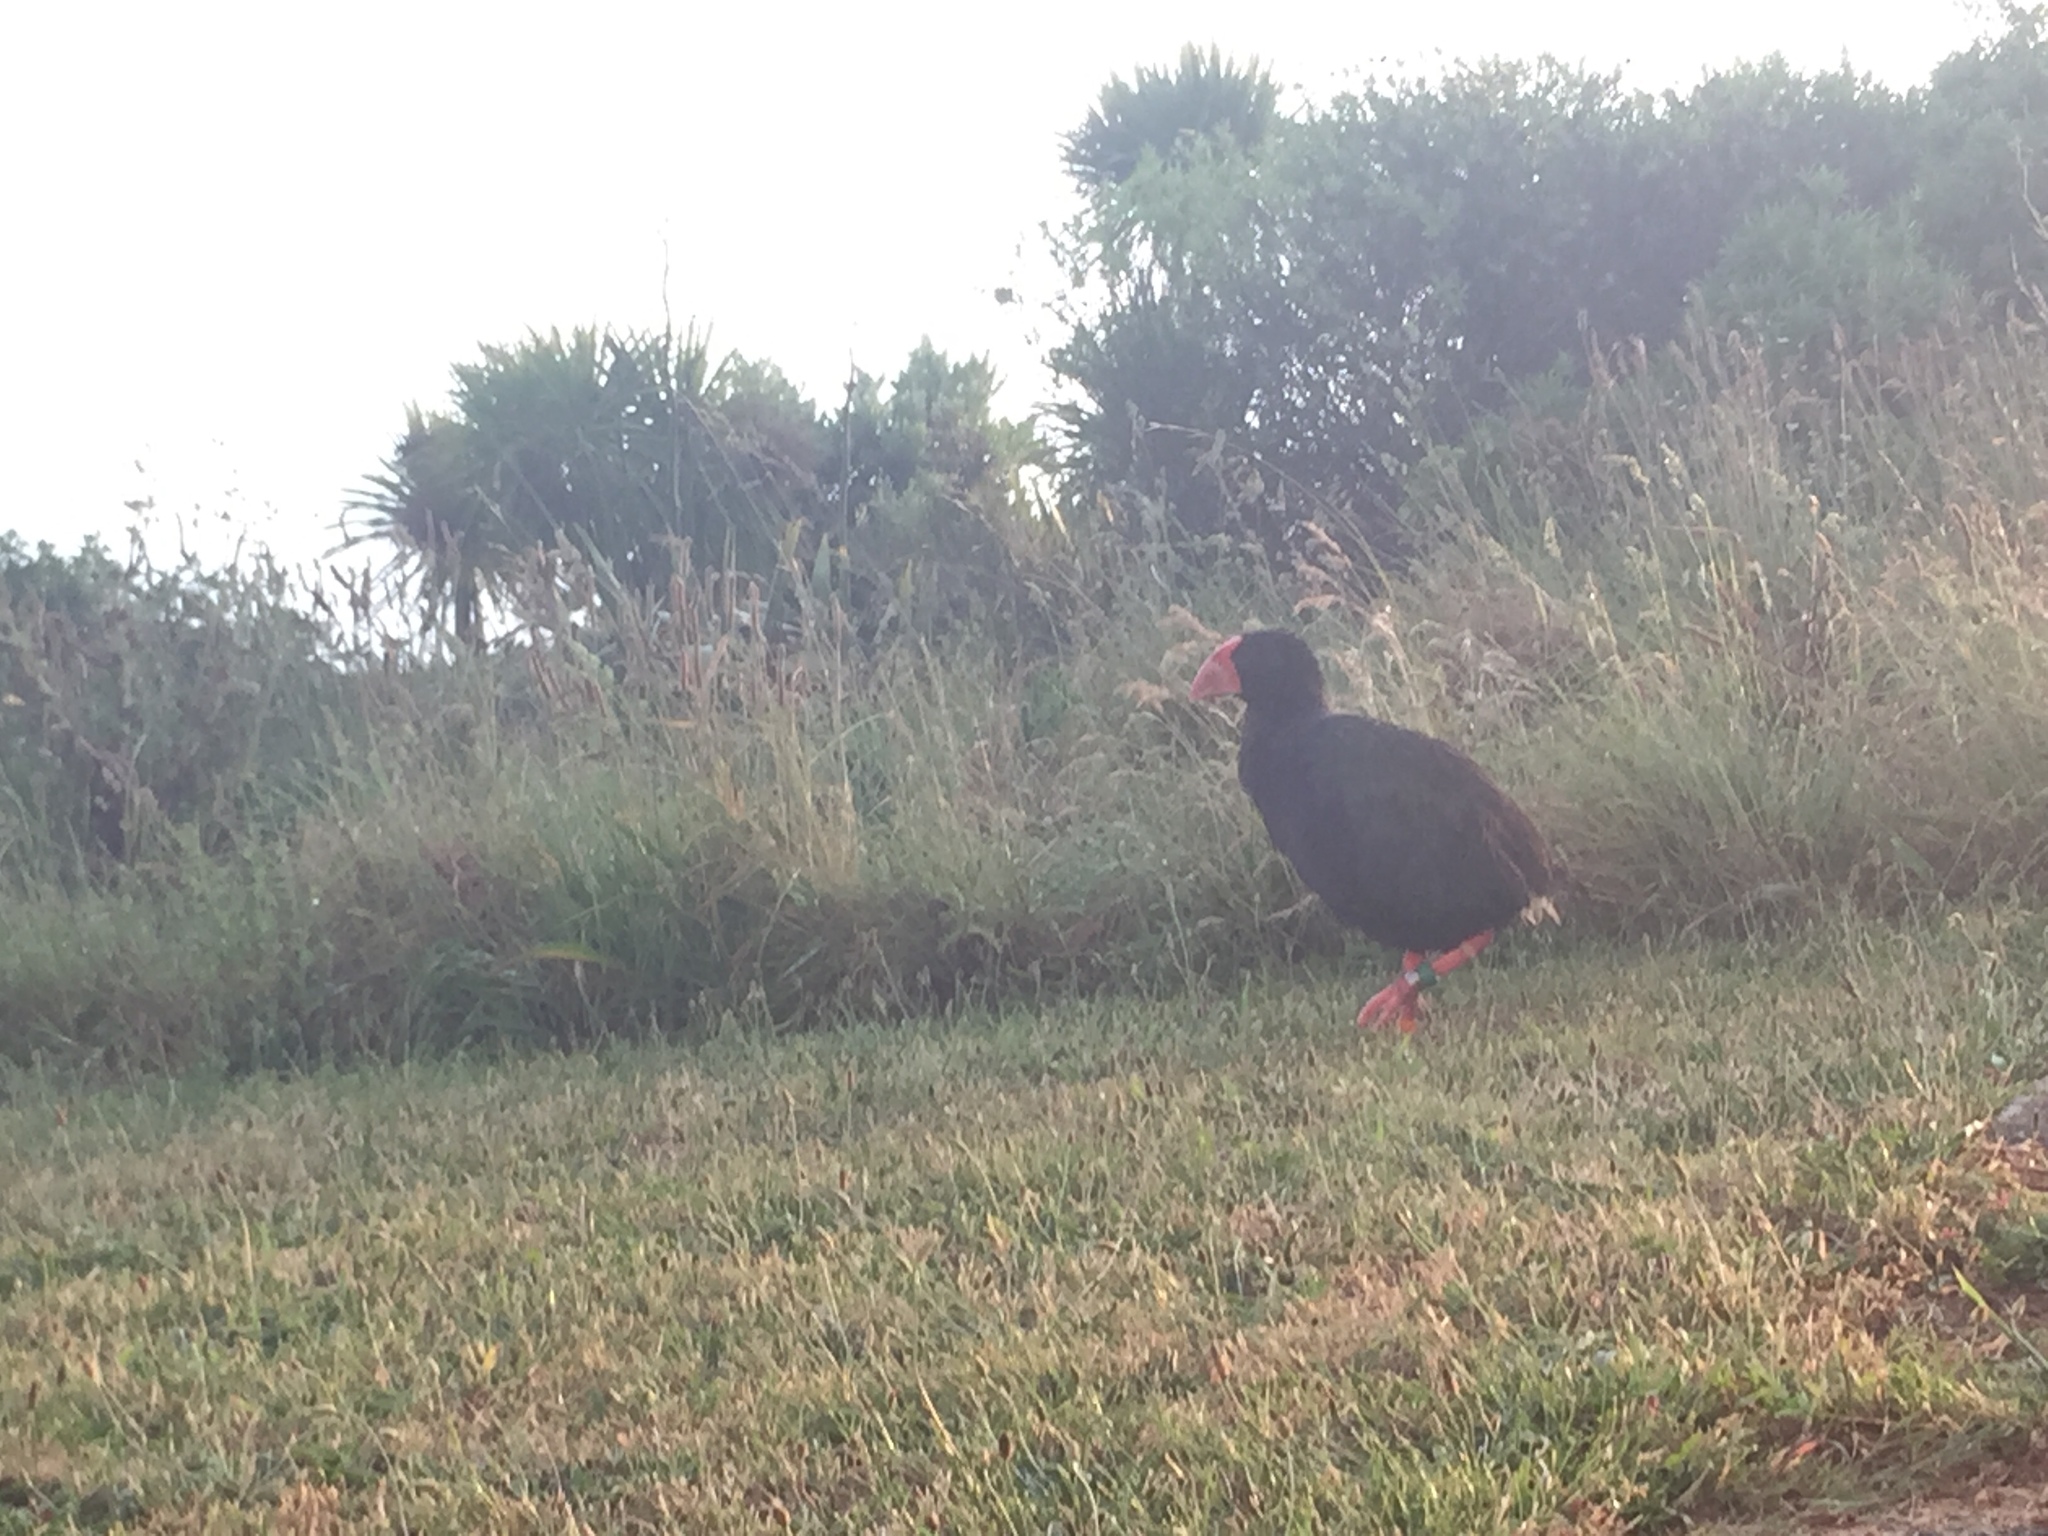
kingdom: Animalia
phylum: Chordata
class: Aves
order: Gruiformes
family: Rallidae
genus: Porphyrio
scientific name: Porphyrio hochstetteri
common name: South island takahe
